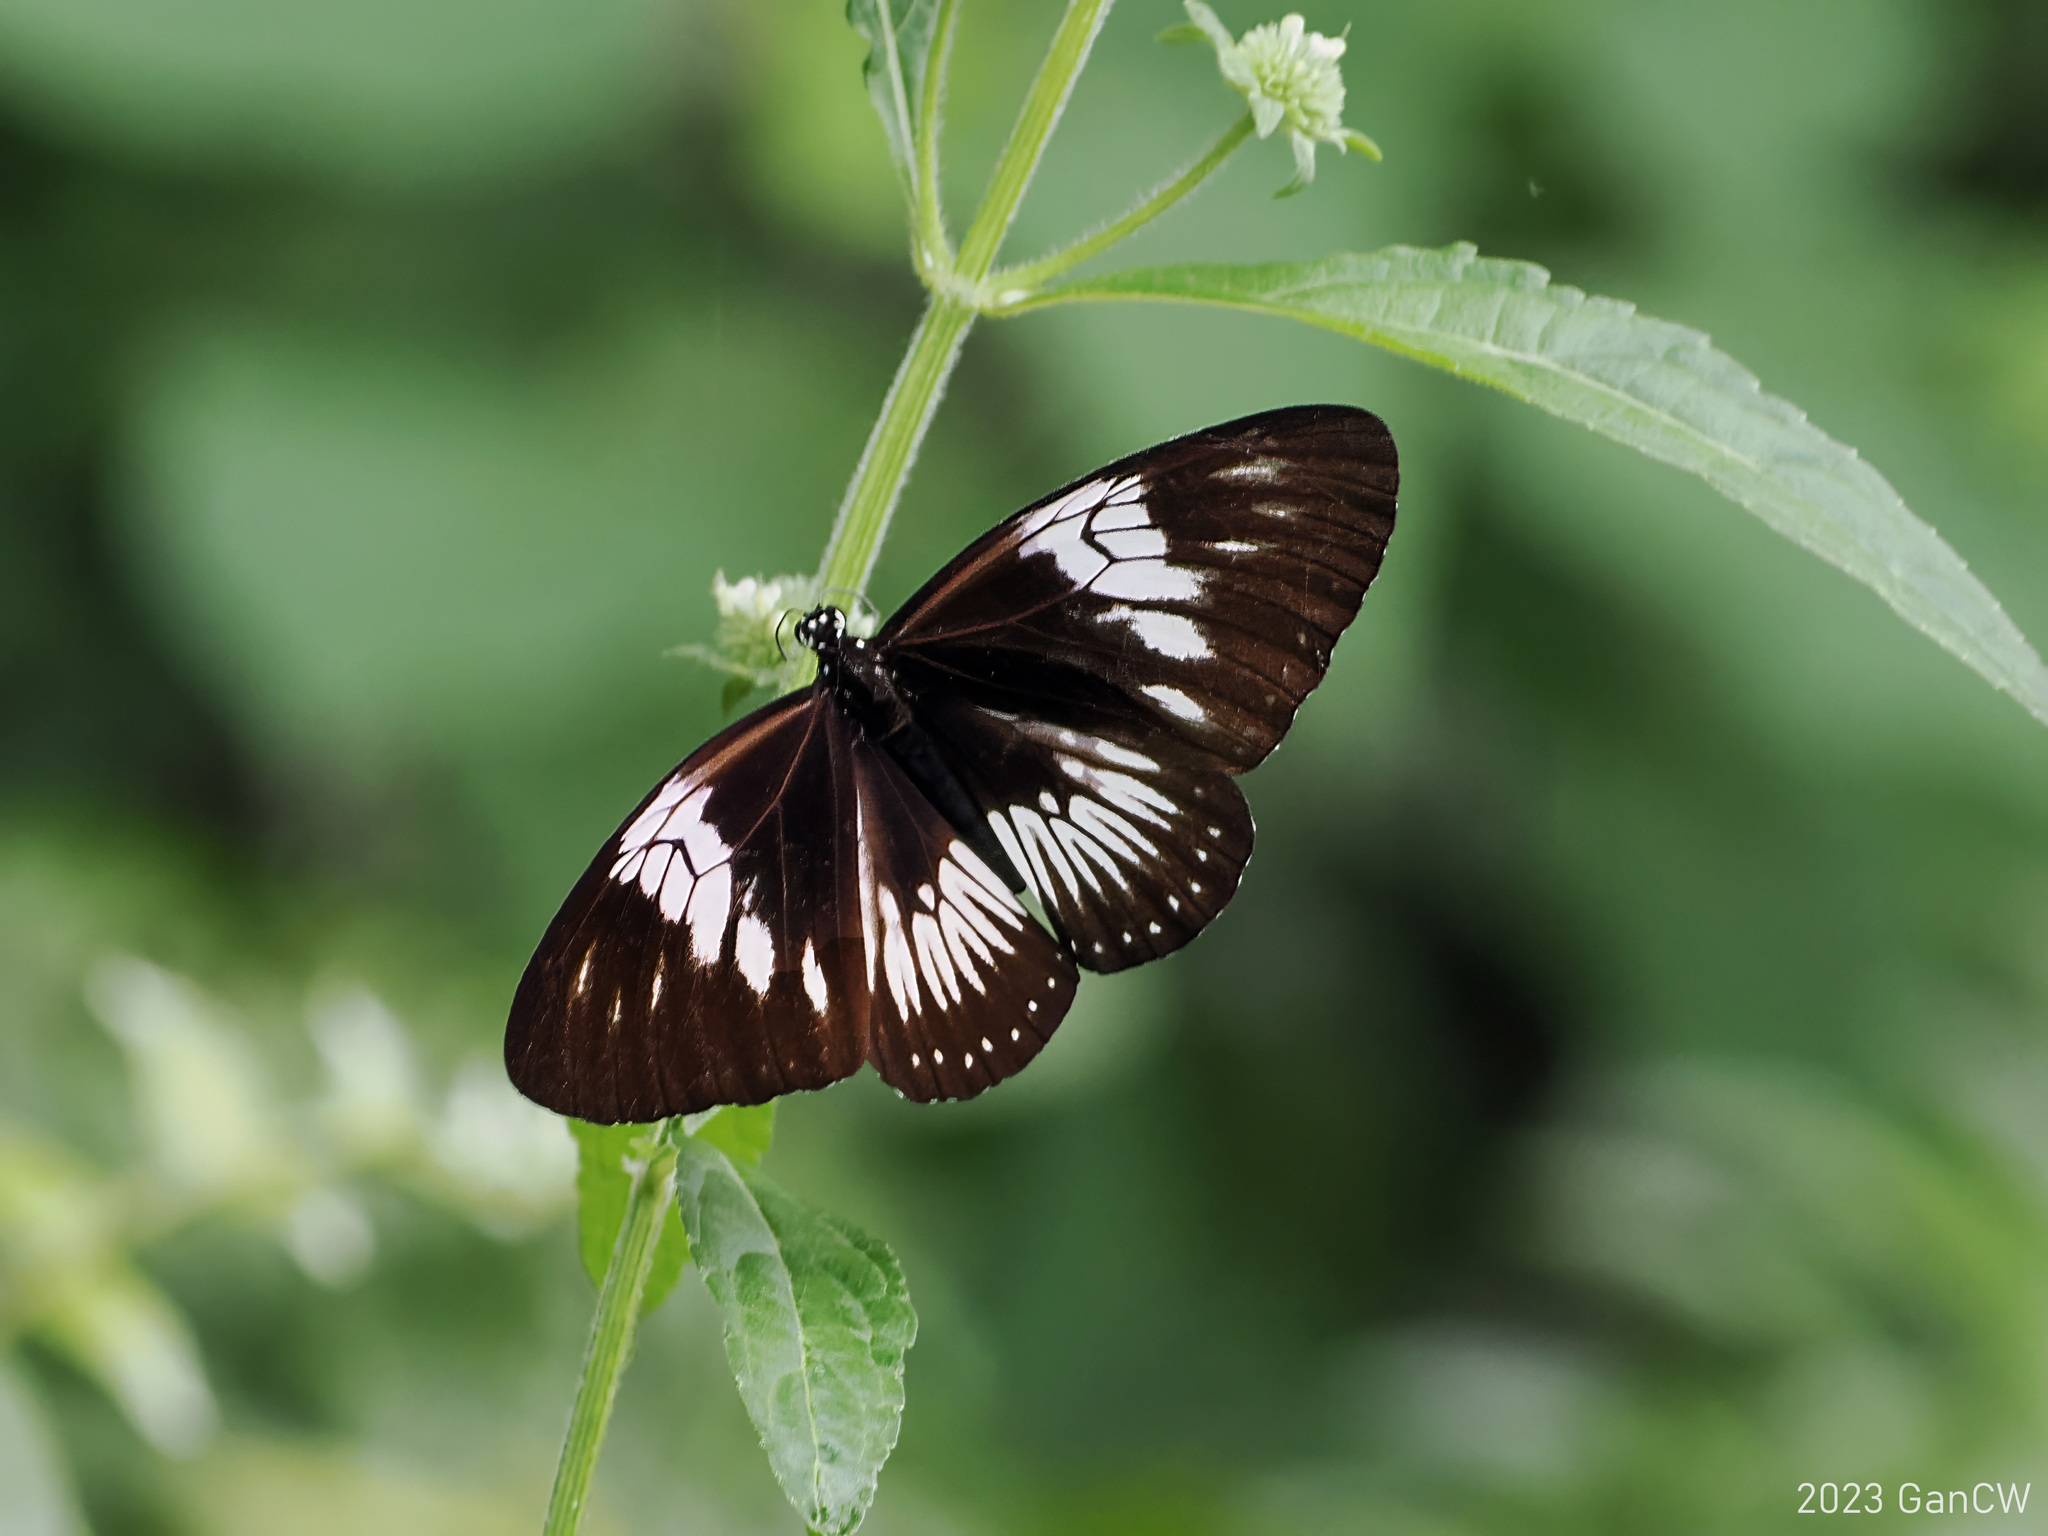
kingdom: Animalia
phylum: Arthropoda
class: Insecta
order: Lepidoptera
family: Nymphalidae
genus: Euploea
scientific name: Euploea eupator
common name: Sulawesi pied crow
